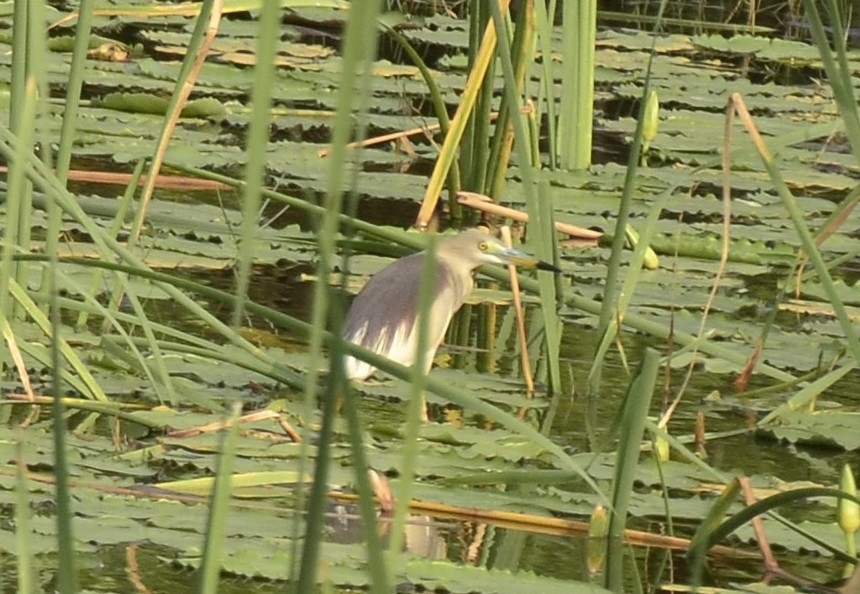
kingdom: Animalia
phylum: Chordata
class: Aves
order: Pelecaniformes
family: Ardeidae
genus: Ardeola
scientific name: Ardeola grayii
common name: Indian pond heron
